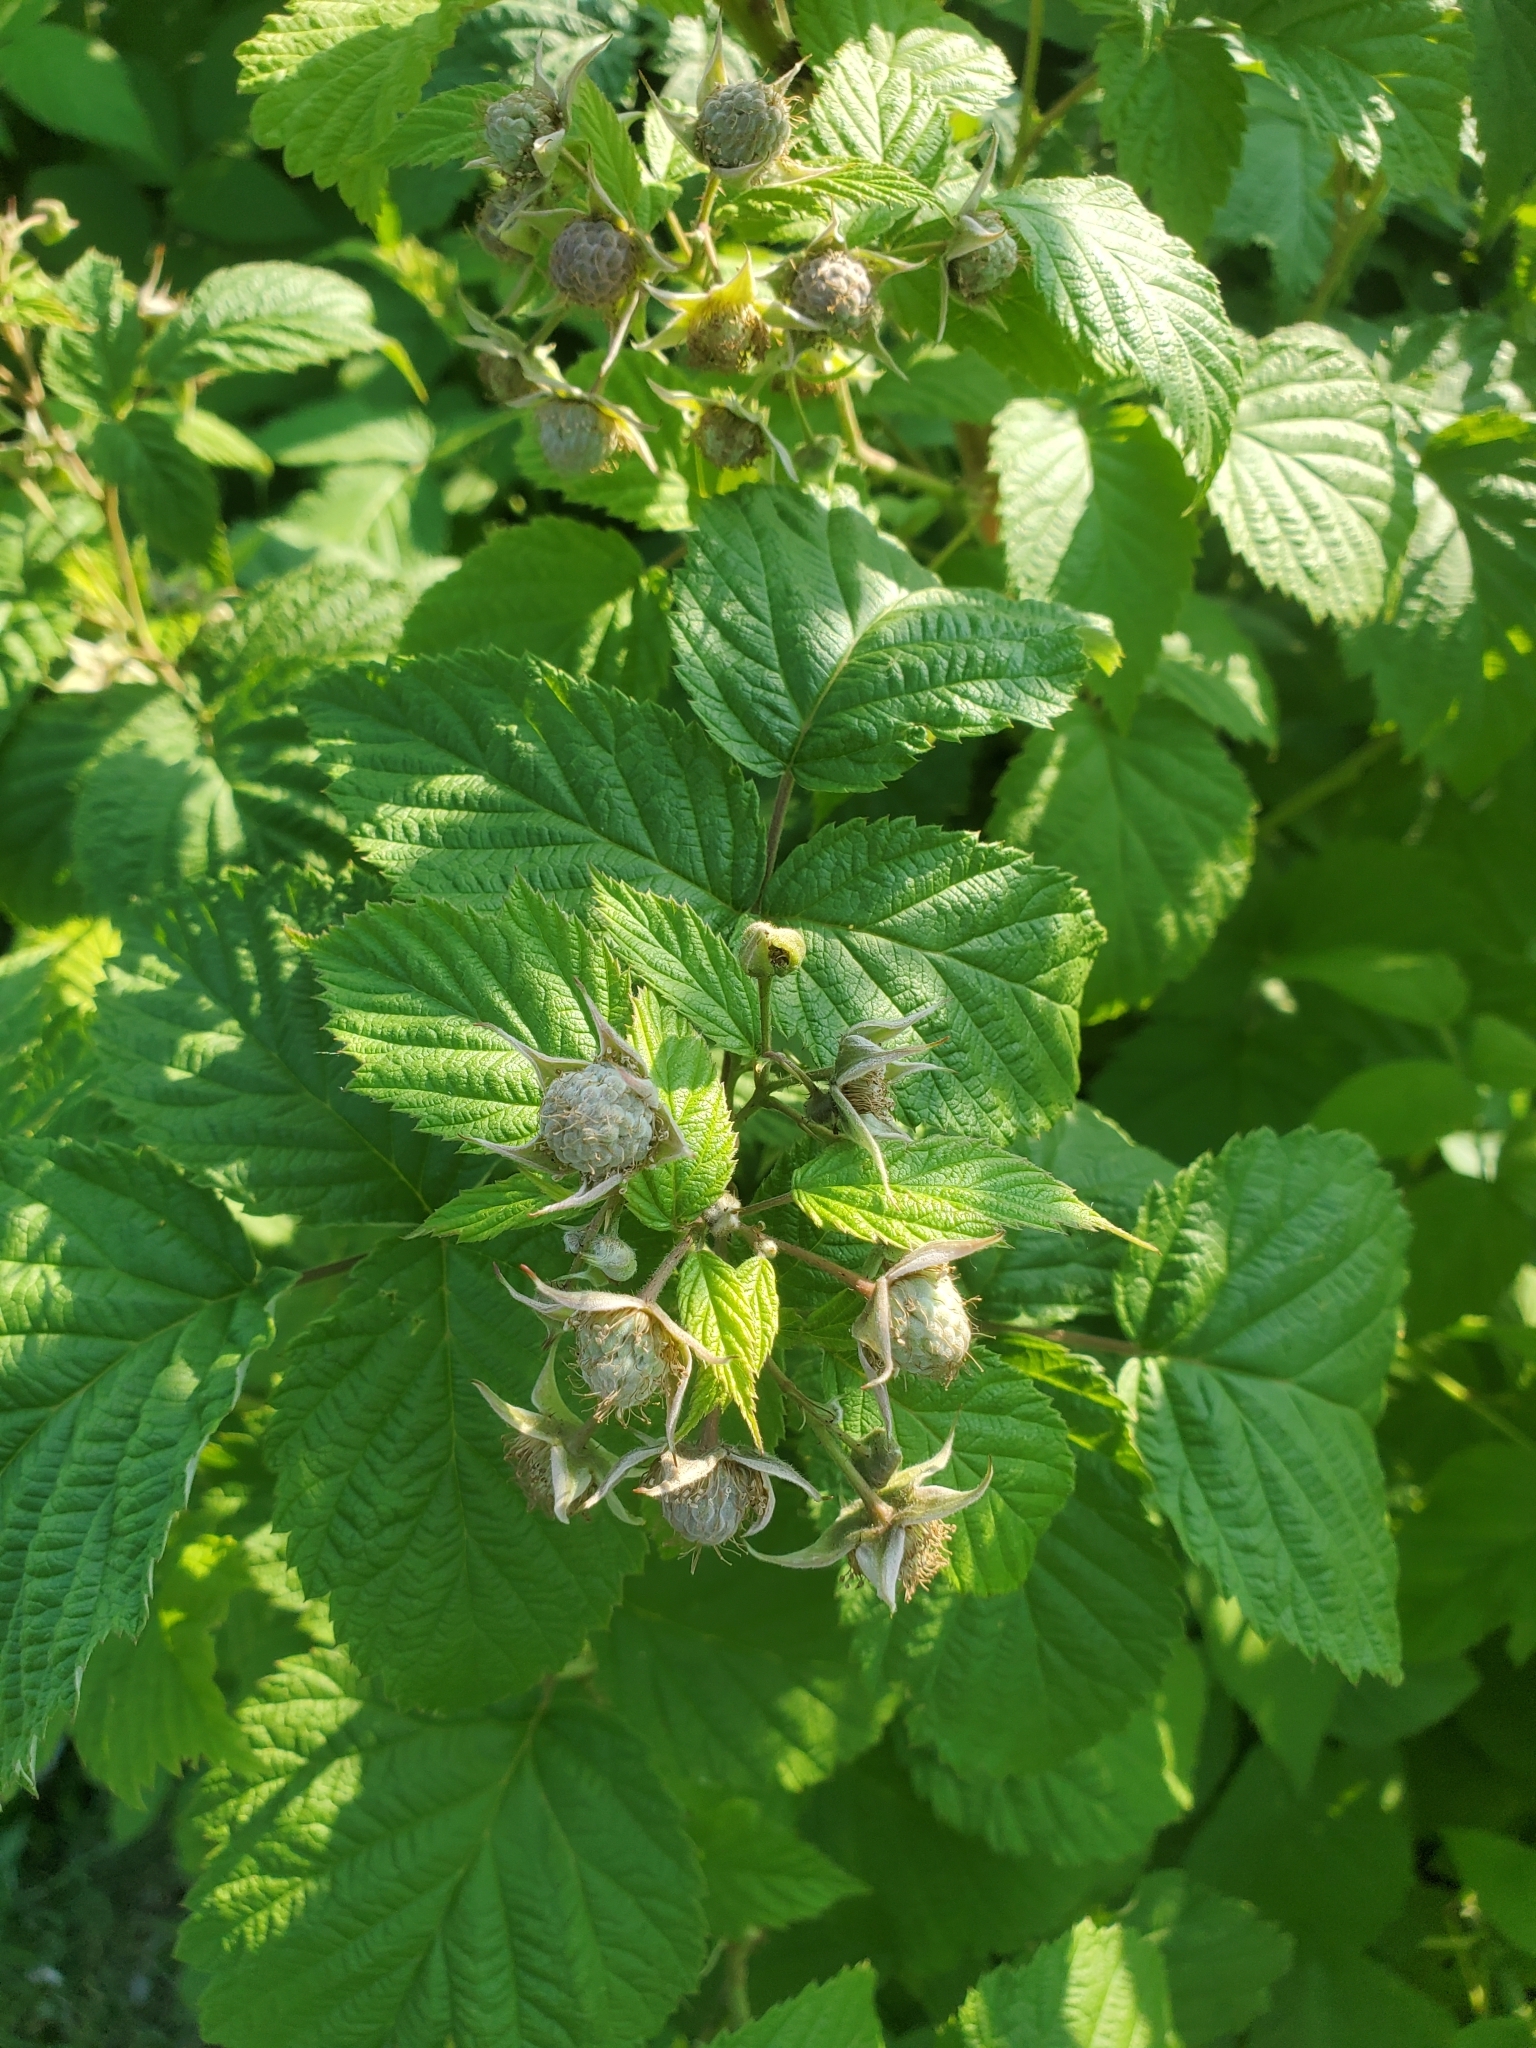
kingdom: Plantae
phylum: Tracheophyta
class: Magnoliopsida
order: Rosales
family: Rosaceae
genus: Rubus
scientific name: Rubus idaeus
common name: Raspberry
